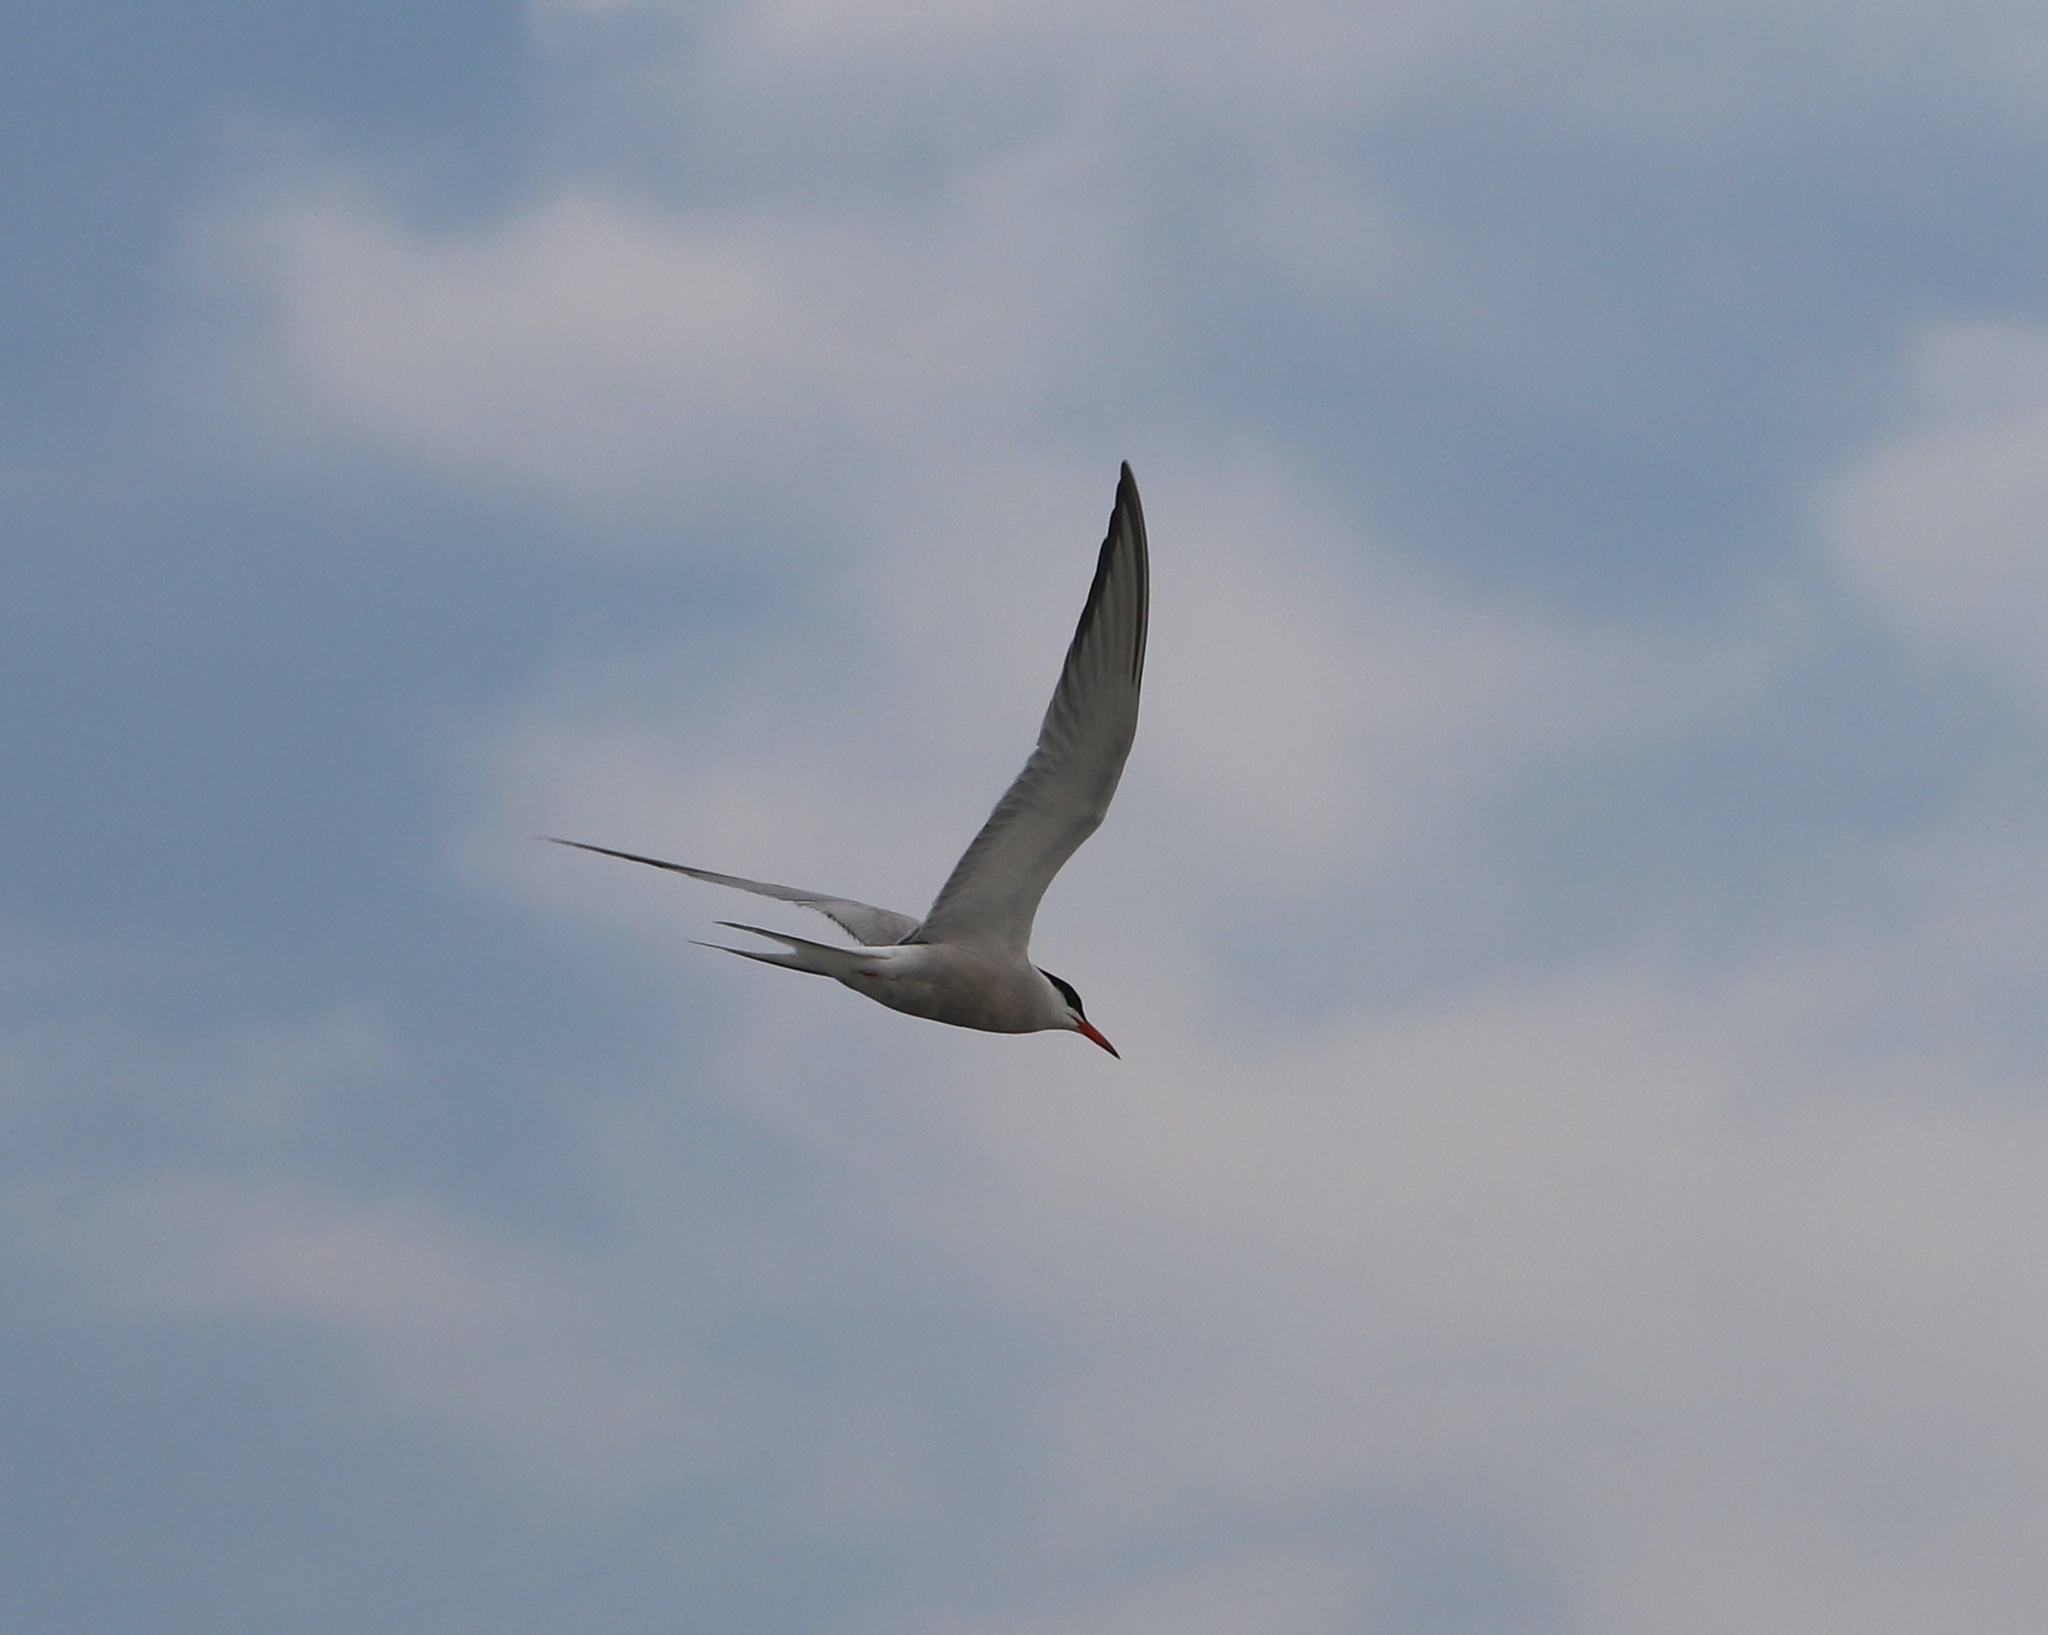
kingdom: Animalia
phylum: Chordata
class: Aves
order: Charadriiformes
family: Laridae
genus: Sterna
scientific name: Sterna hirundo
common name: Common tern
